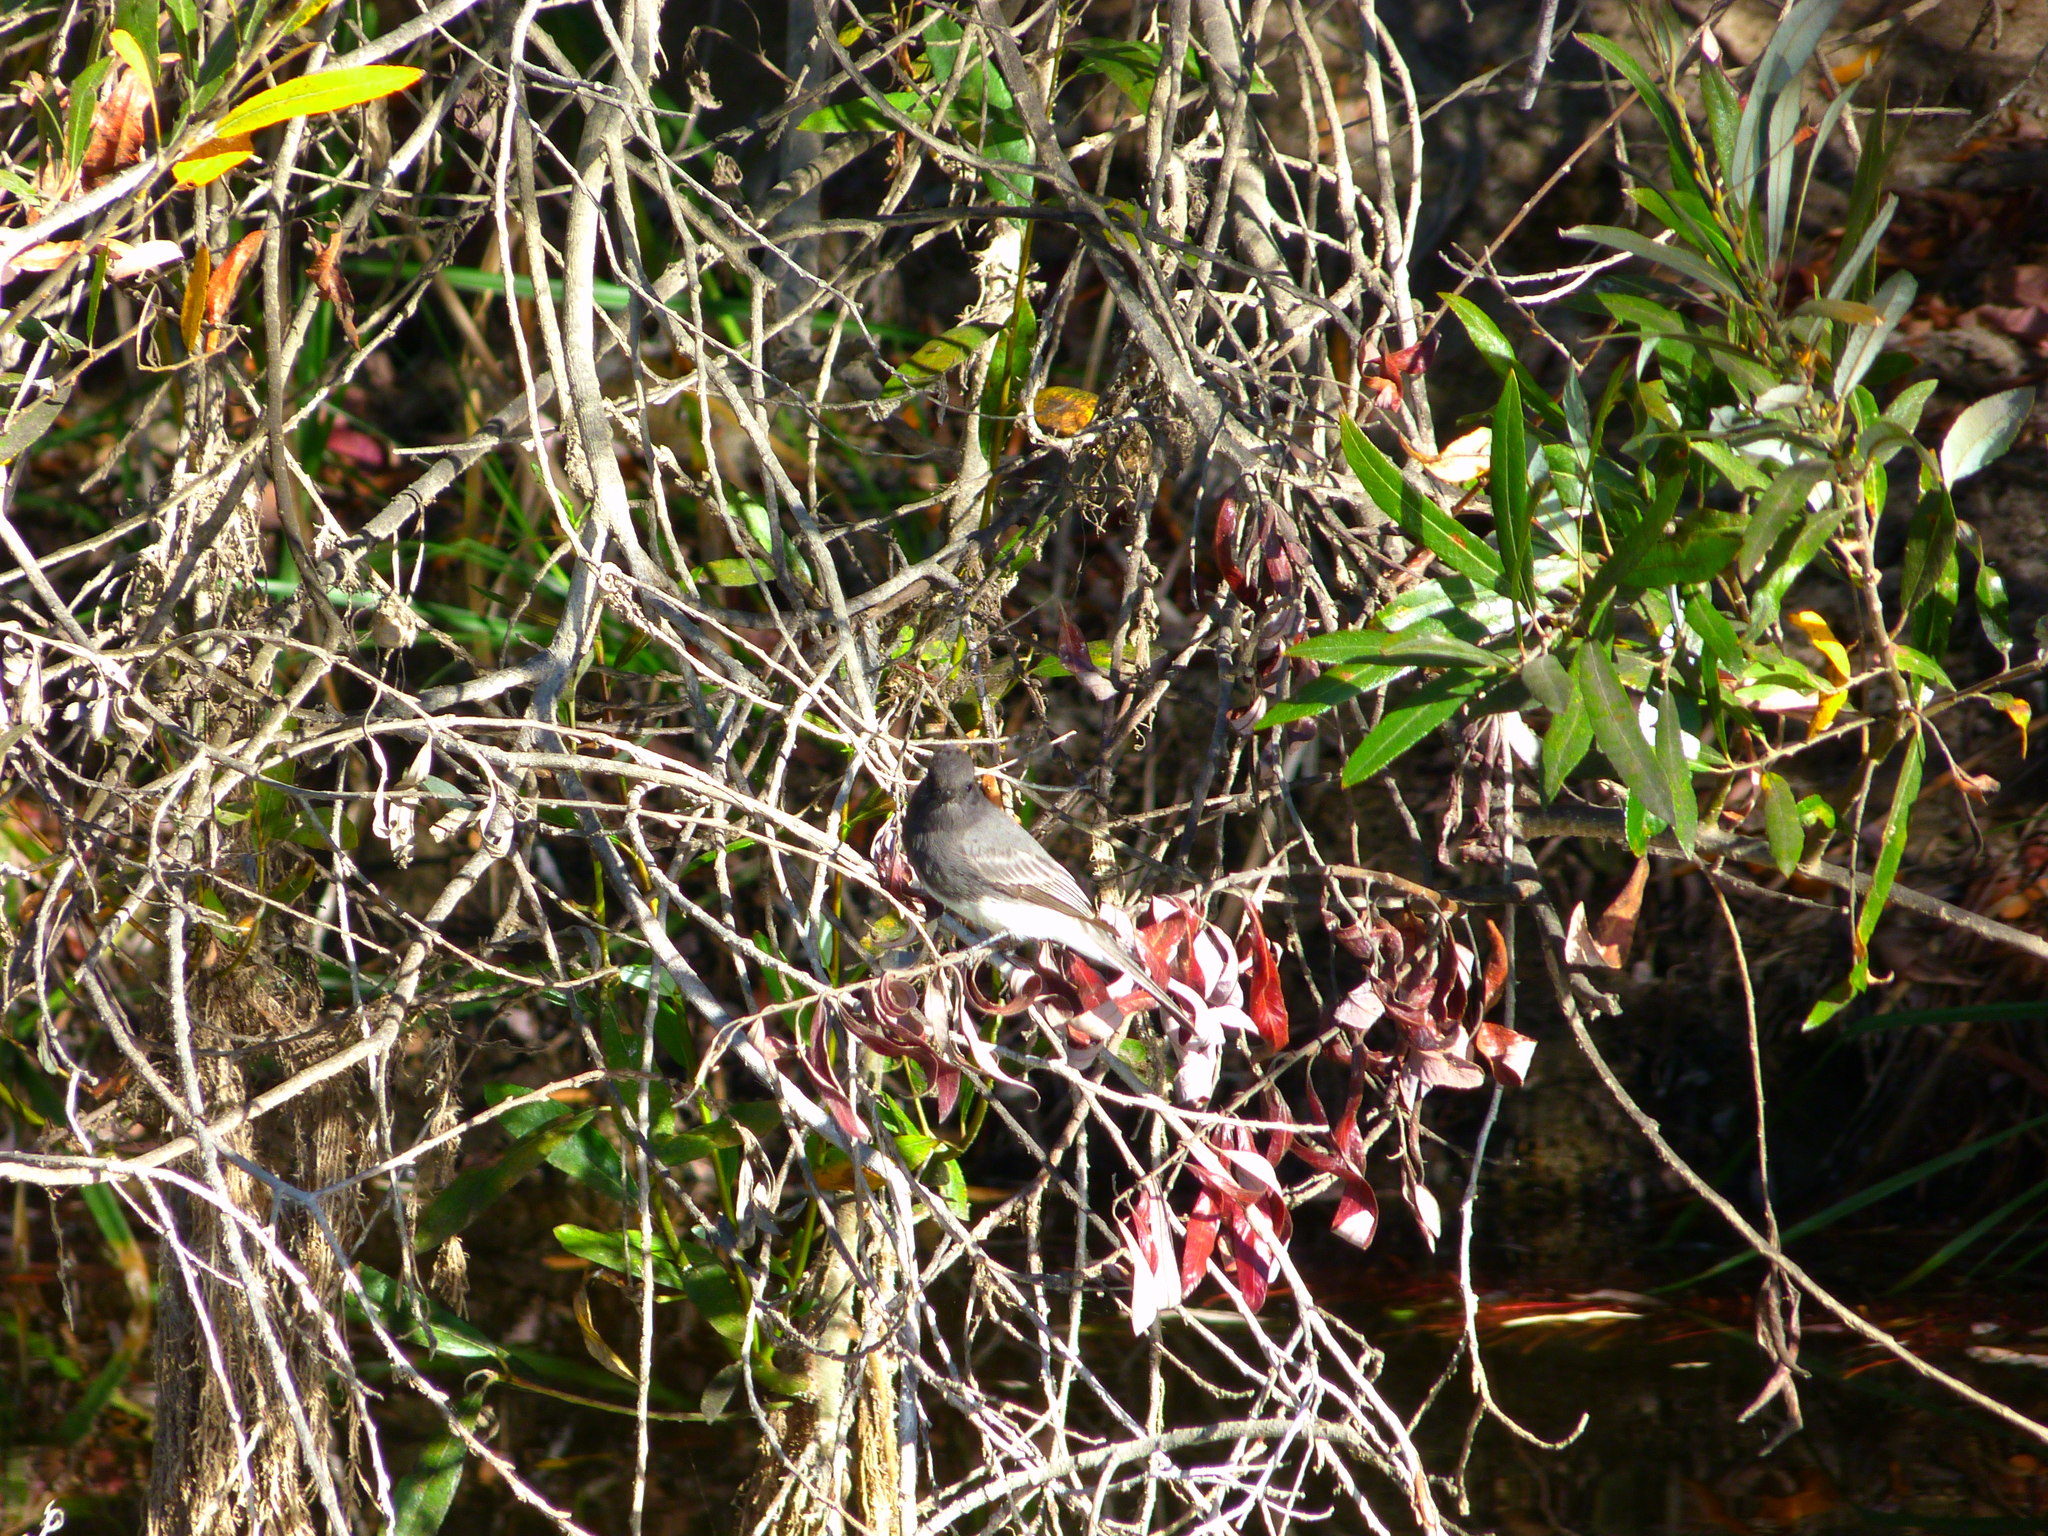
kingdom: Animalia
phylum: Chordata
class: Aves
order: Passeriformes
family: Tyrannidae
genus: Sayornis
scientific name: Sayornis nigricans
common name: Black phoebe
